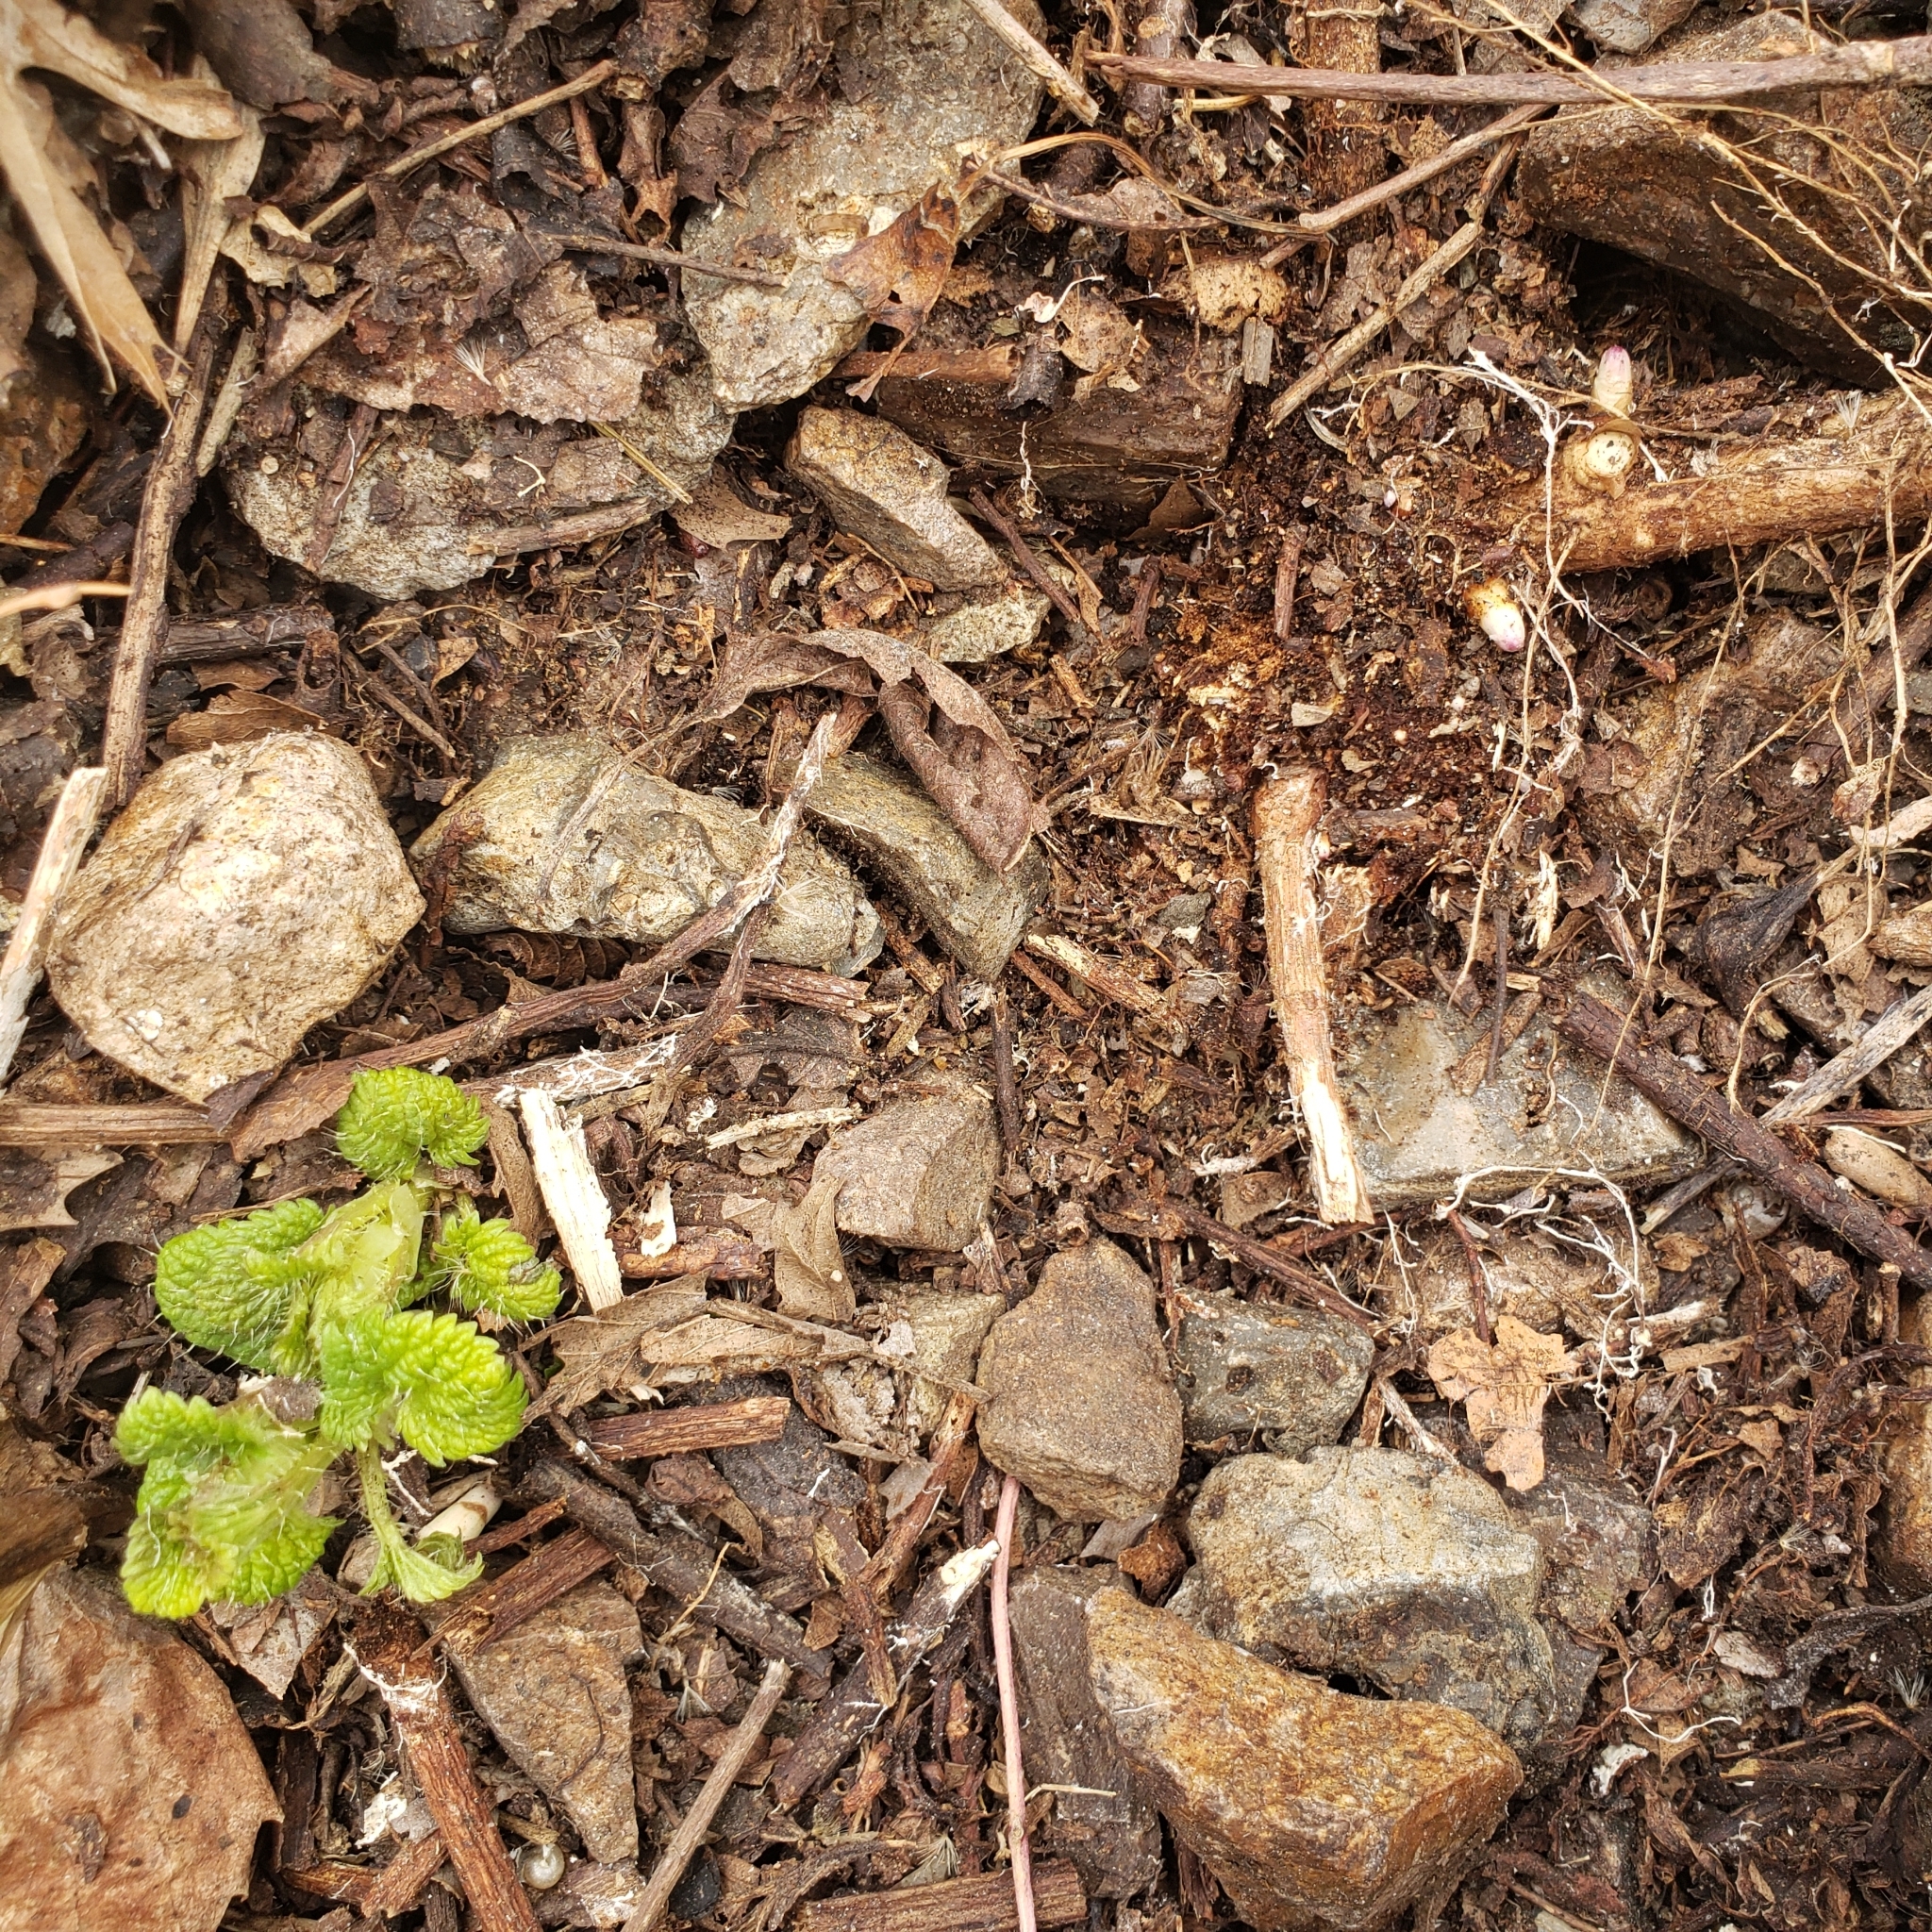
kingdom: Plantae
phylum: Tracheophyta
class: Magnoliopsida
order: Rosales
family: Cannabaceae
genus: Humulus
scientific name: Humulus lupulus
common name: Hop
